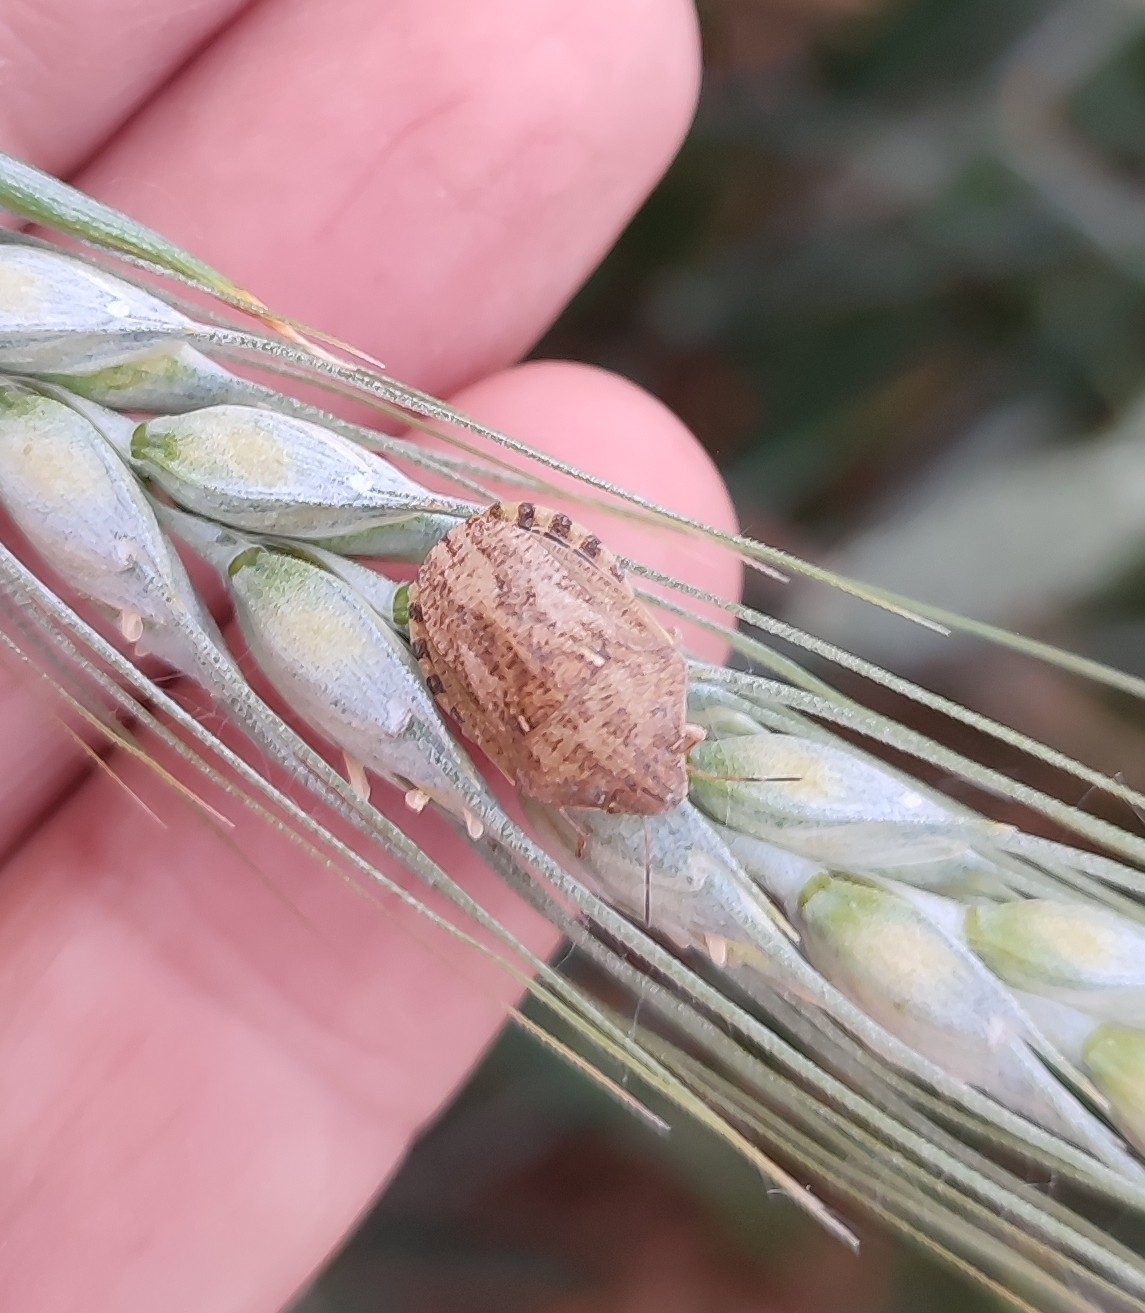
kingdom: Animalia
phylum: Arthropoda
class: Insecta
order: Hemiptera
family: Scutelleridae
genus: Eurygaster
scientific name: Eurygaster maura
